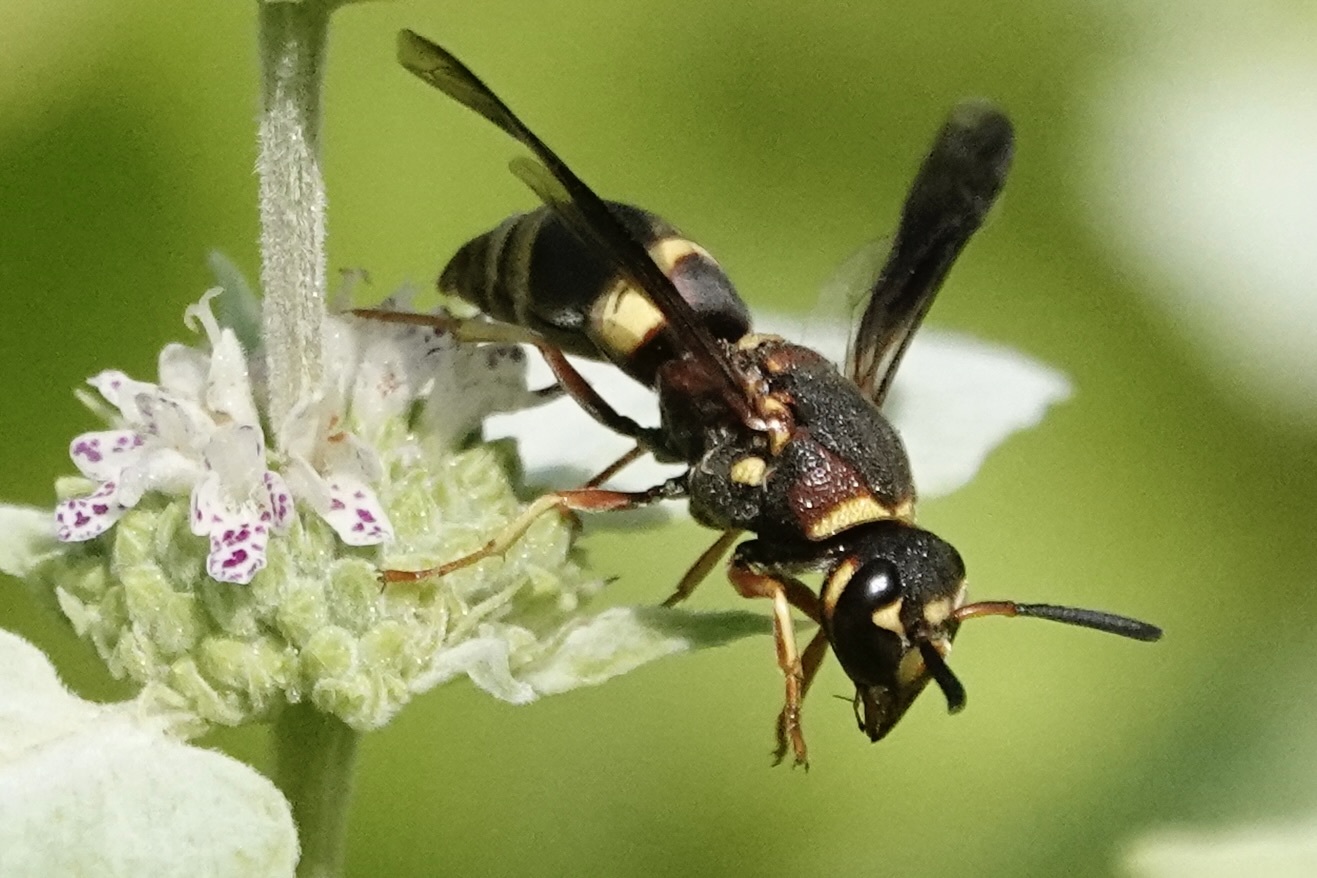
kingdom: Animalia
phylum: Arthropoda
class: Insecta
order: Hymenoptera
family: Eumenidae
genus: Euodynerus
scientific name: Euodynerus hidalgo
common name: Wasp
